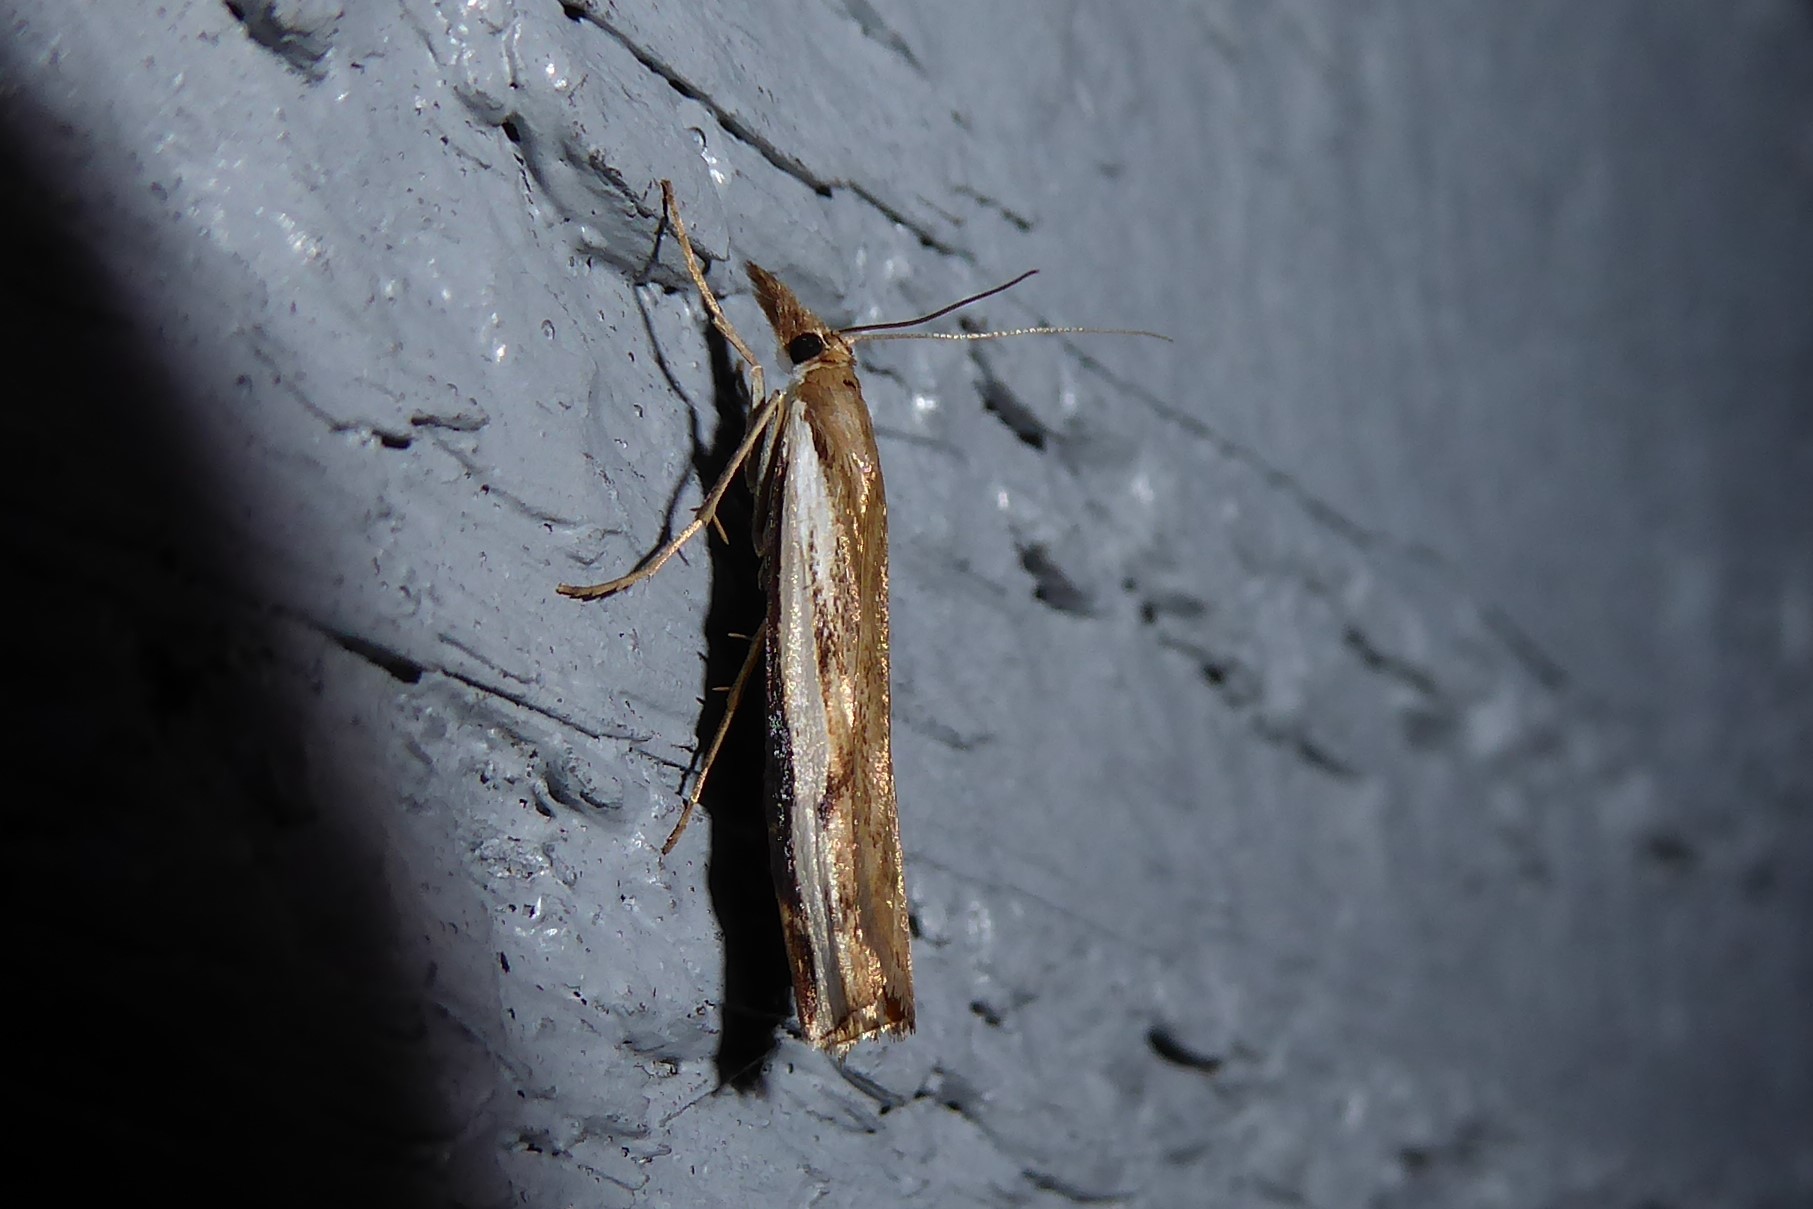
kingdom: Animalia
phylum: Arthropoda
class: Insecta
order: Lepidoptera
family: Crambidae
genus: Orocrambus
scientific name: Orocrambus flexuosellus
